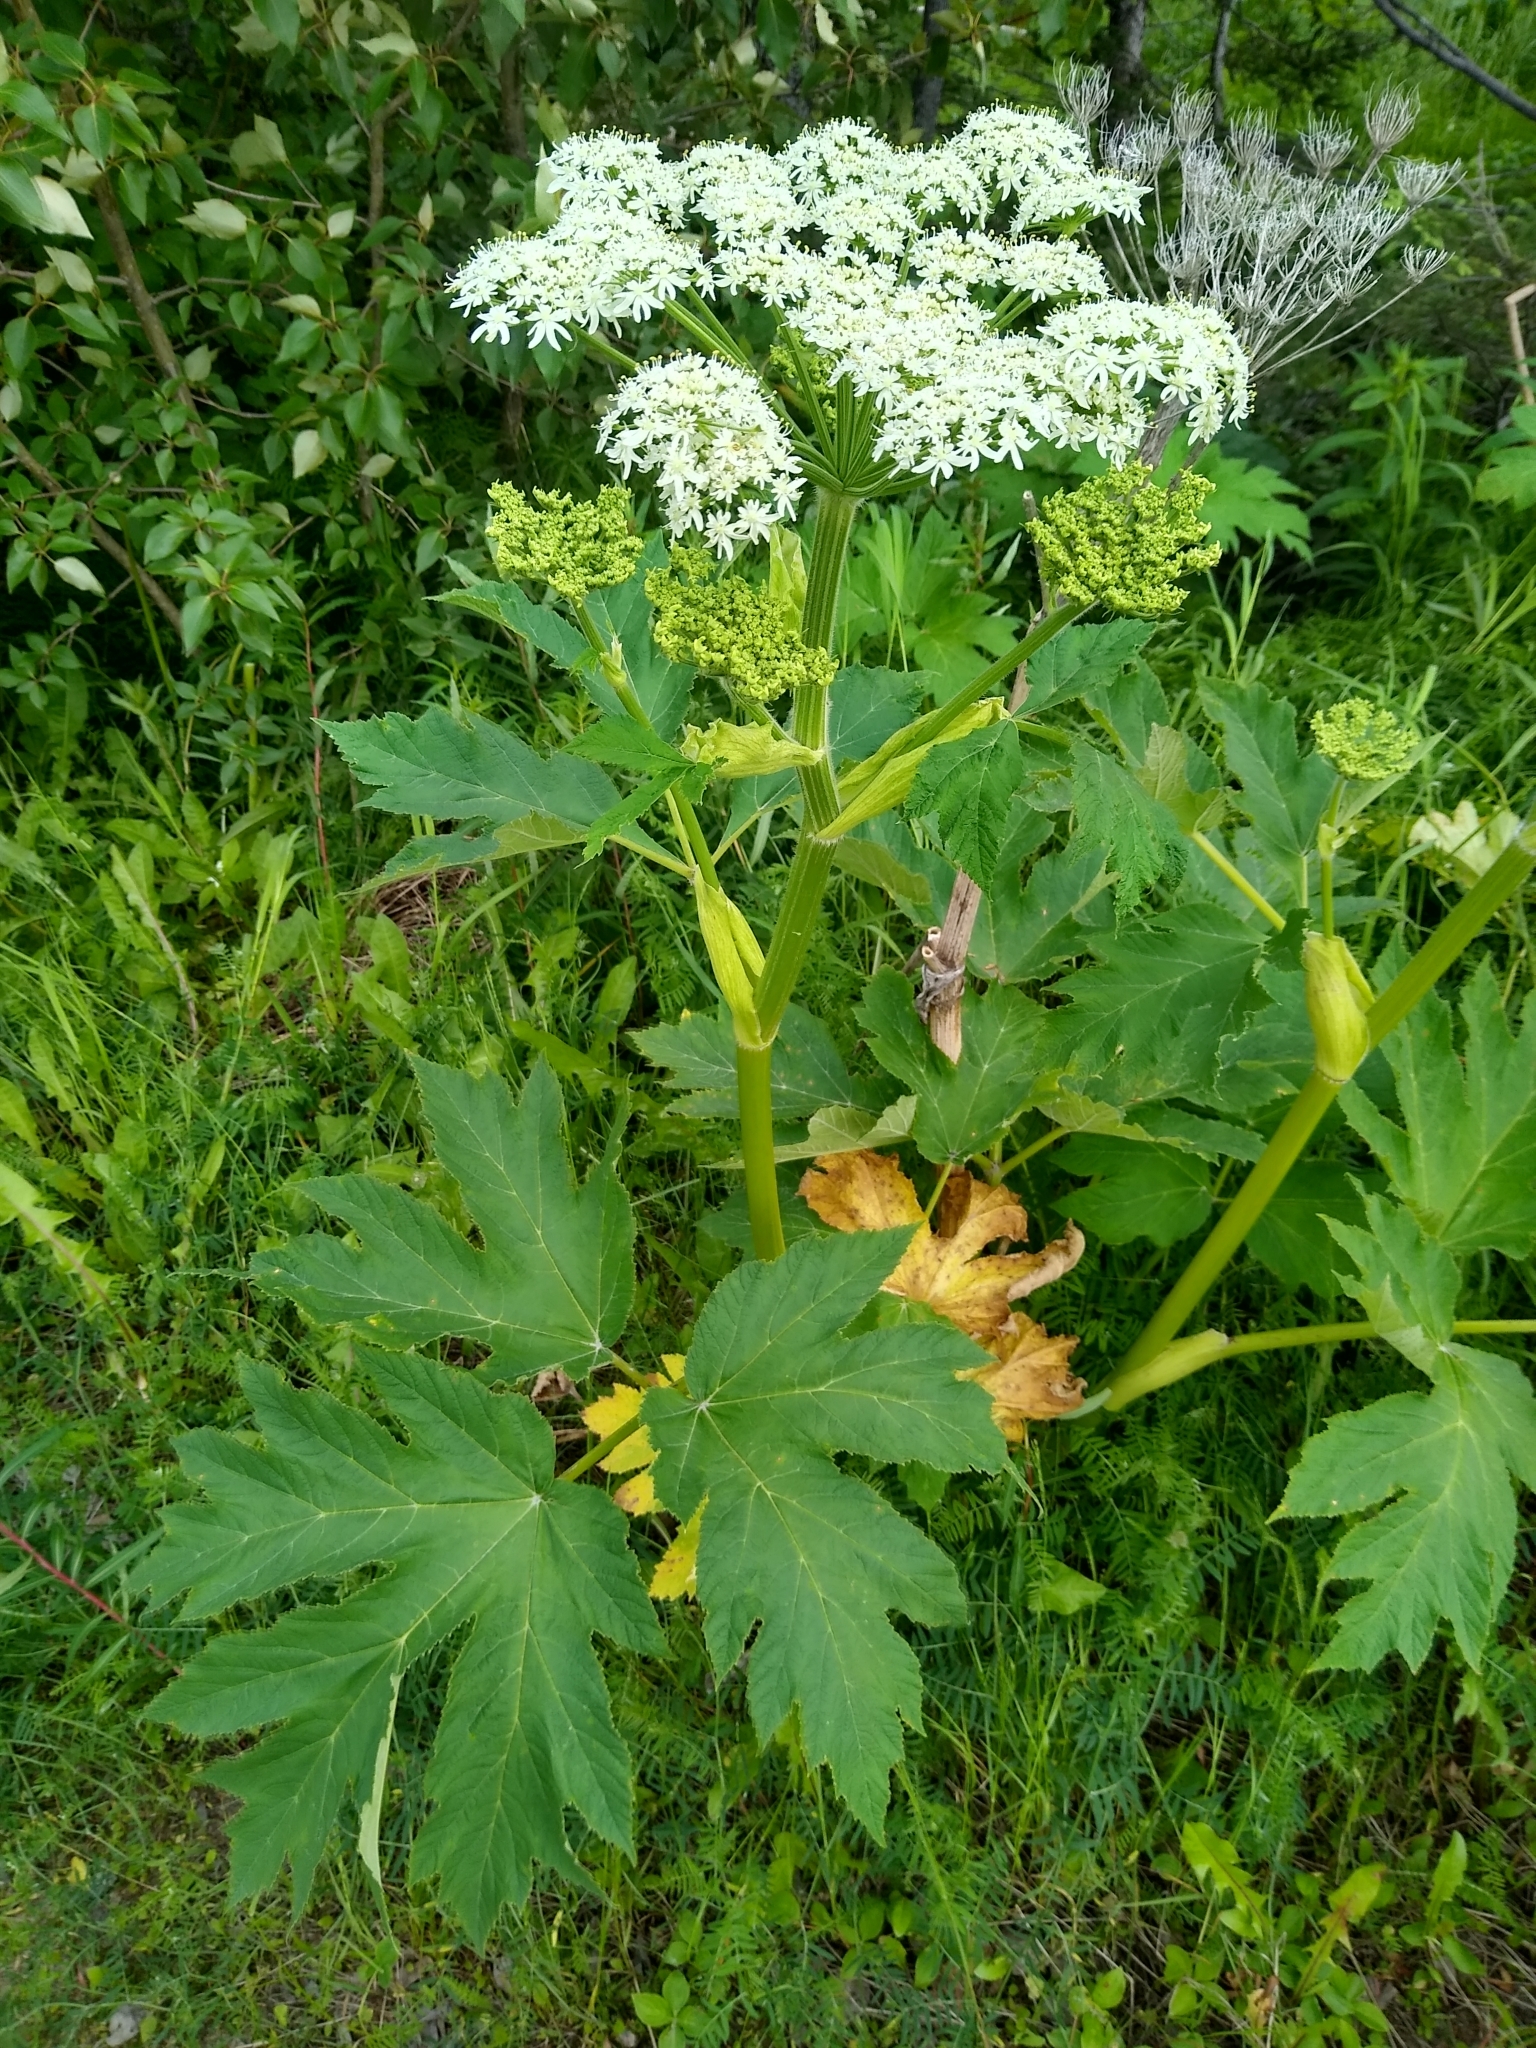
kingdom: Plantae
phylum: Tracheophyta
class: Magnoliopsida
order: Apiales
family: Apiaceae
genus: Heracleum
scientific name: Heracleum maximum
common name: American cow parsnip
